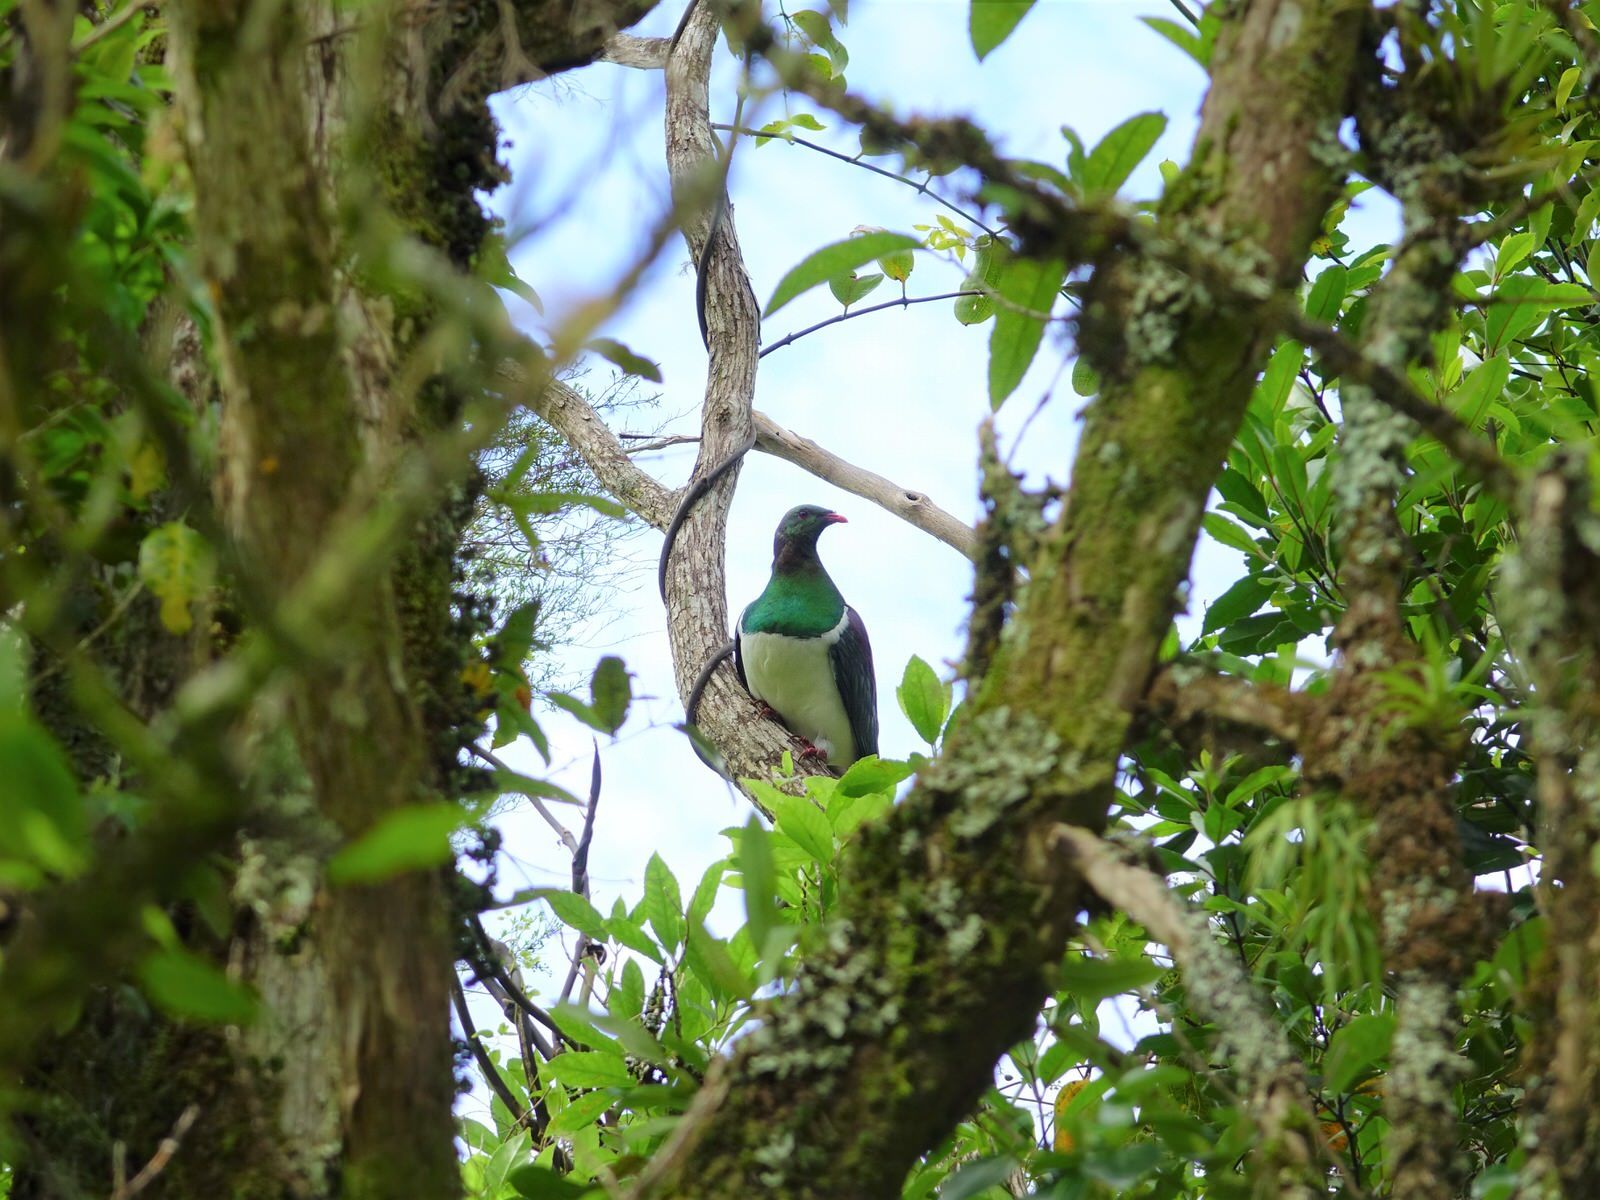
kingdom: Animalia
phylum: Chordata
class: Aves
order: Columbiformes
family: Columbidae
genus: Hemiphaga
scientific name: Hemiphaga novaeseelandiae
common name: New zealand pigeon
